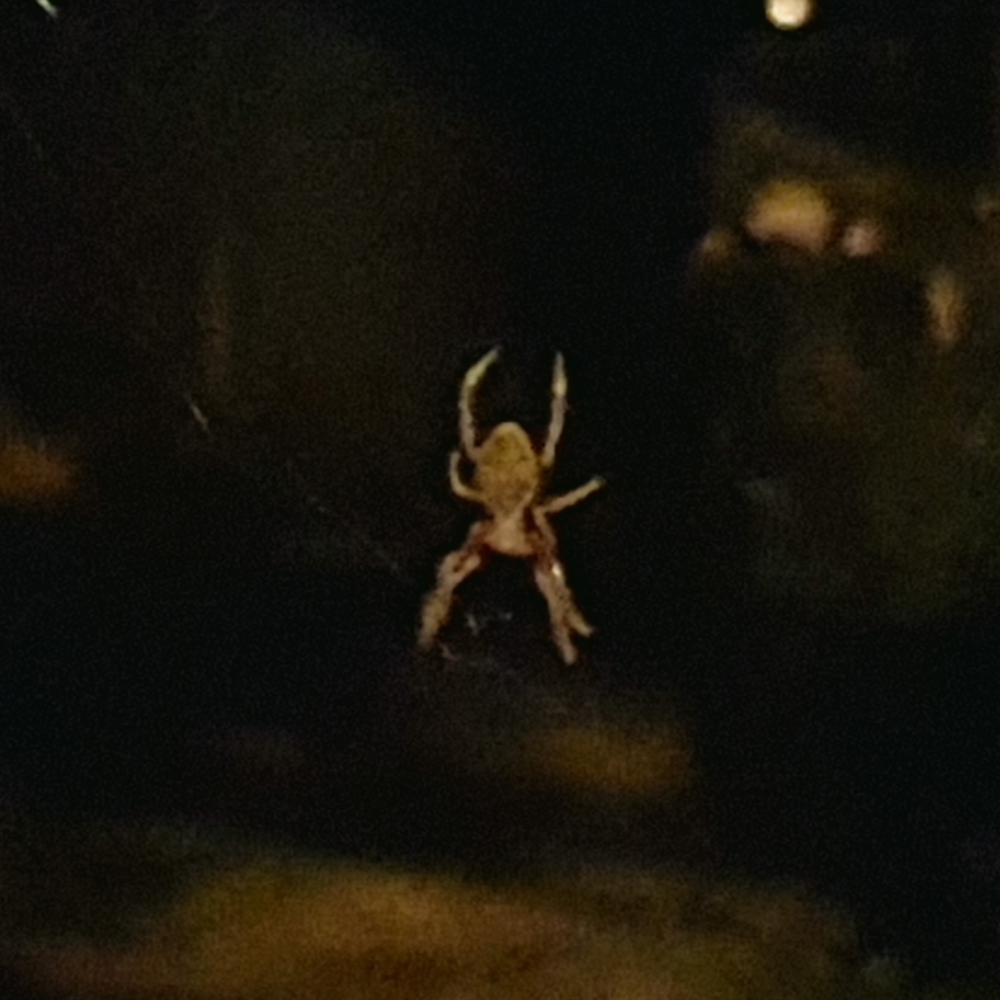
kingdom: Animalia
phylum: Arthropoda
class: Arachnida
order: Araneae
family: Araneidae
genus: Hortophora
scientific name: Hortophora biapicata
